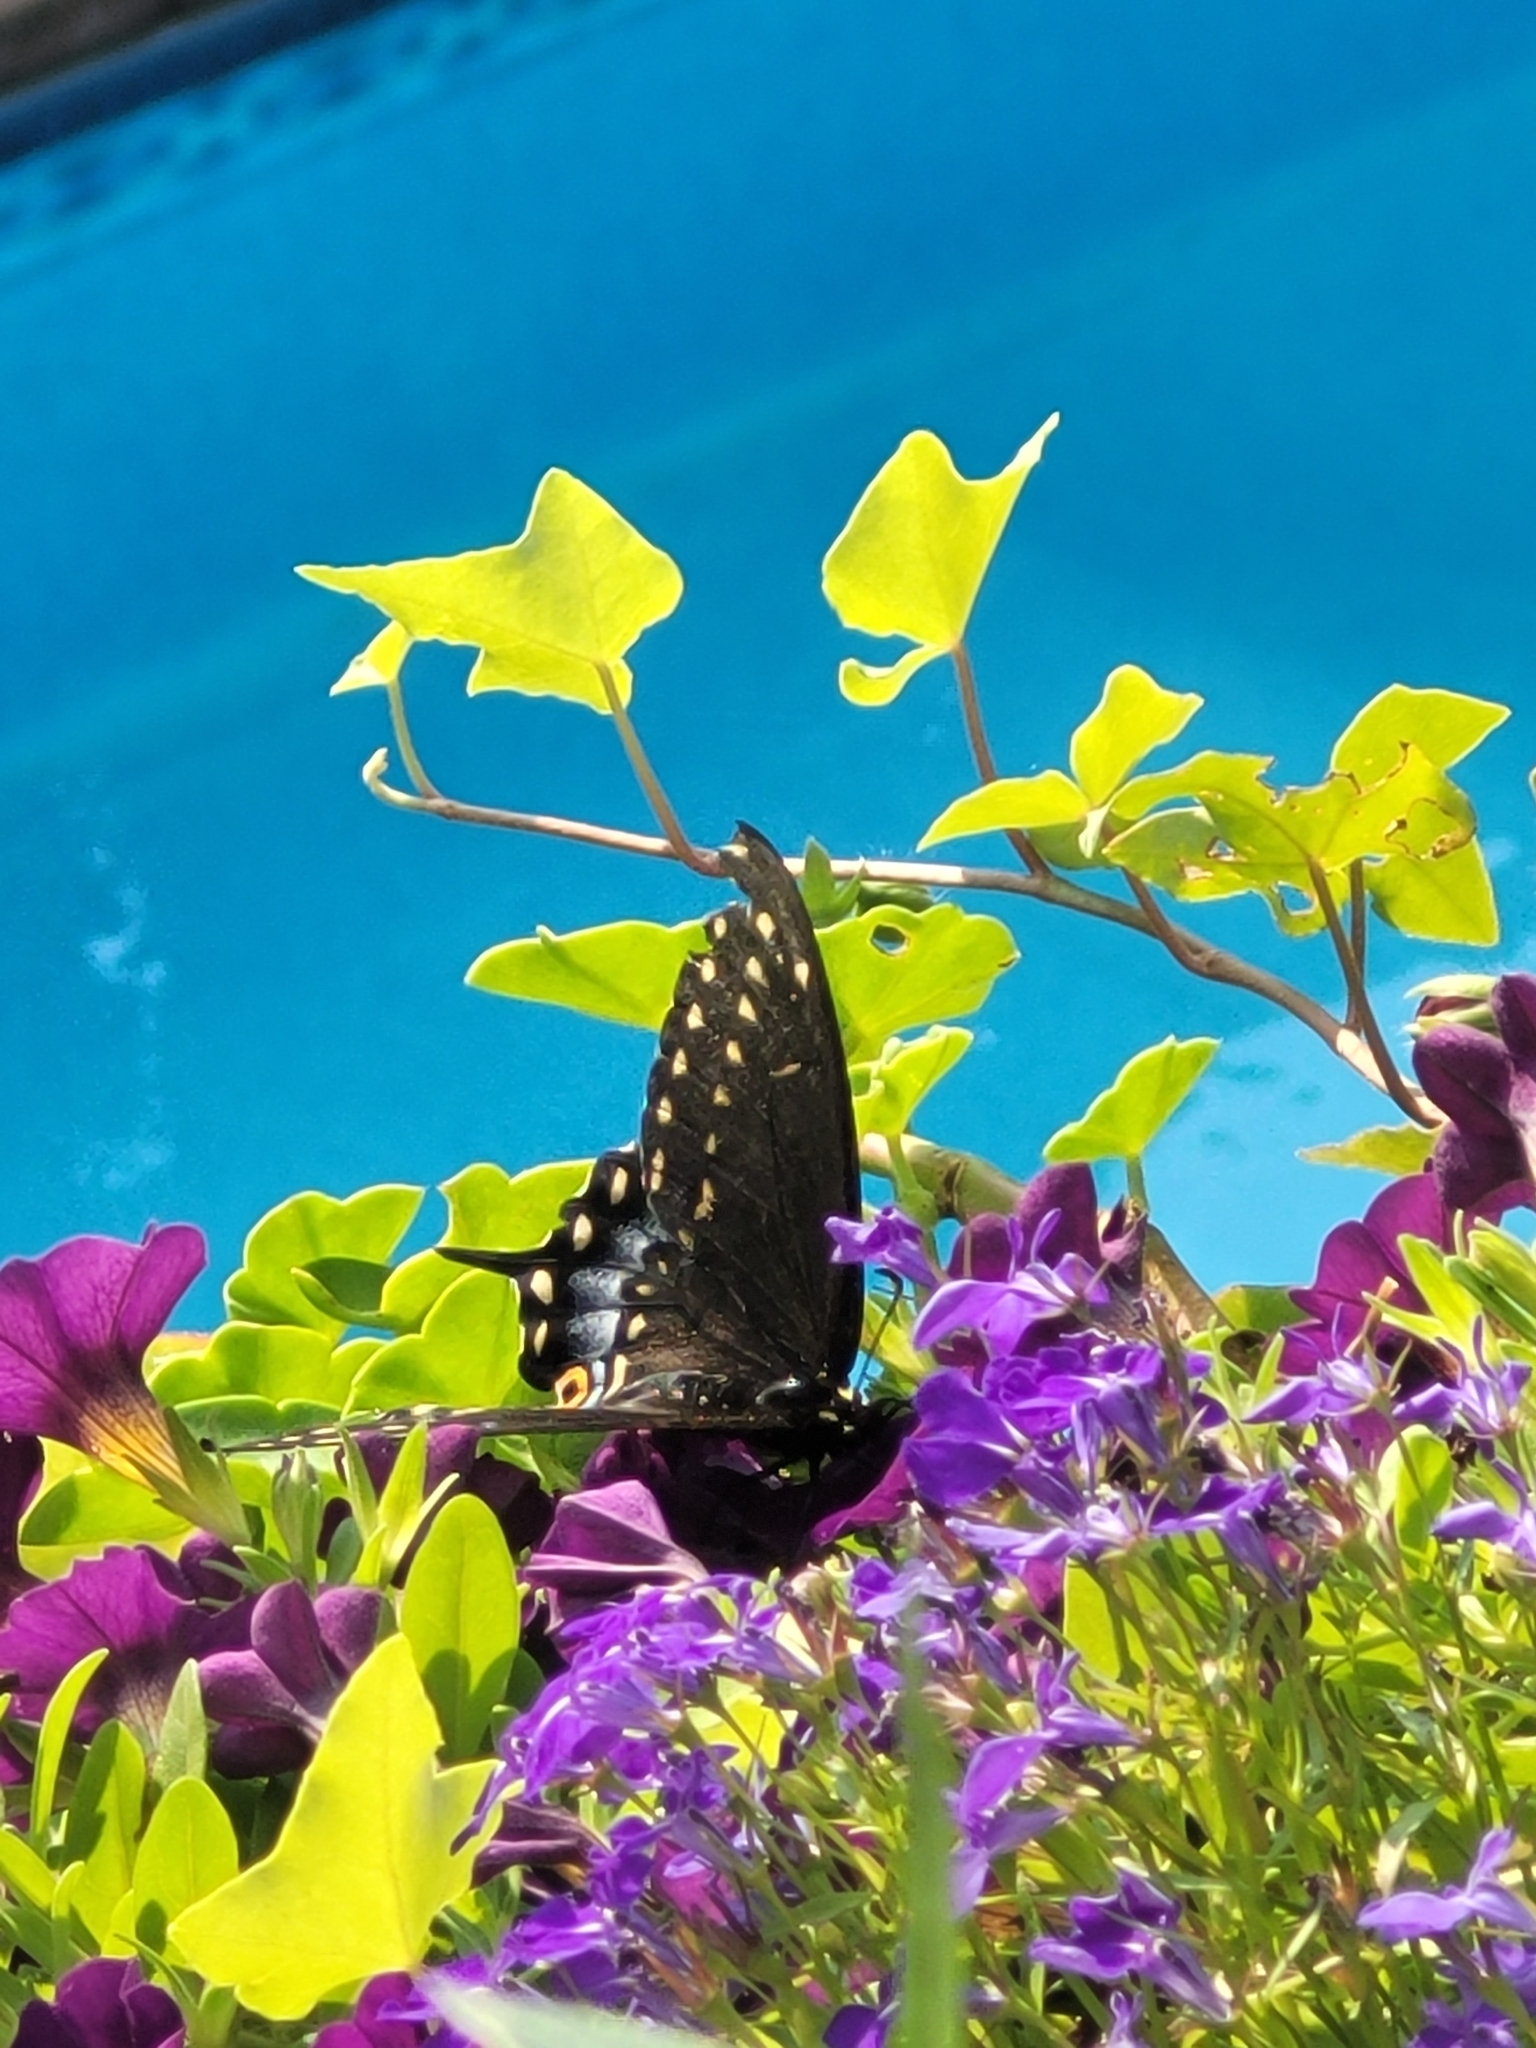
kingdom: Animalia
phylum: Arthropoda
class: Insecta
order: Lepidoptera
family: Papilionidae
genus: Papilio
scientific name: Papilio polyxenes
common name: Black swallowtail
